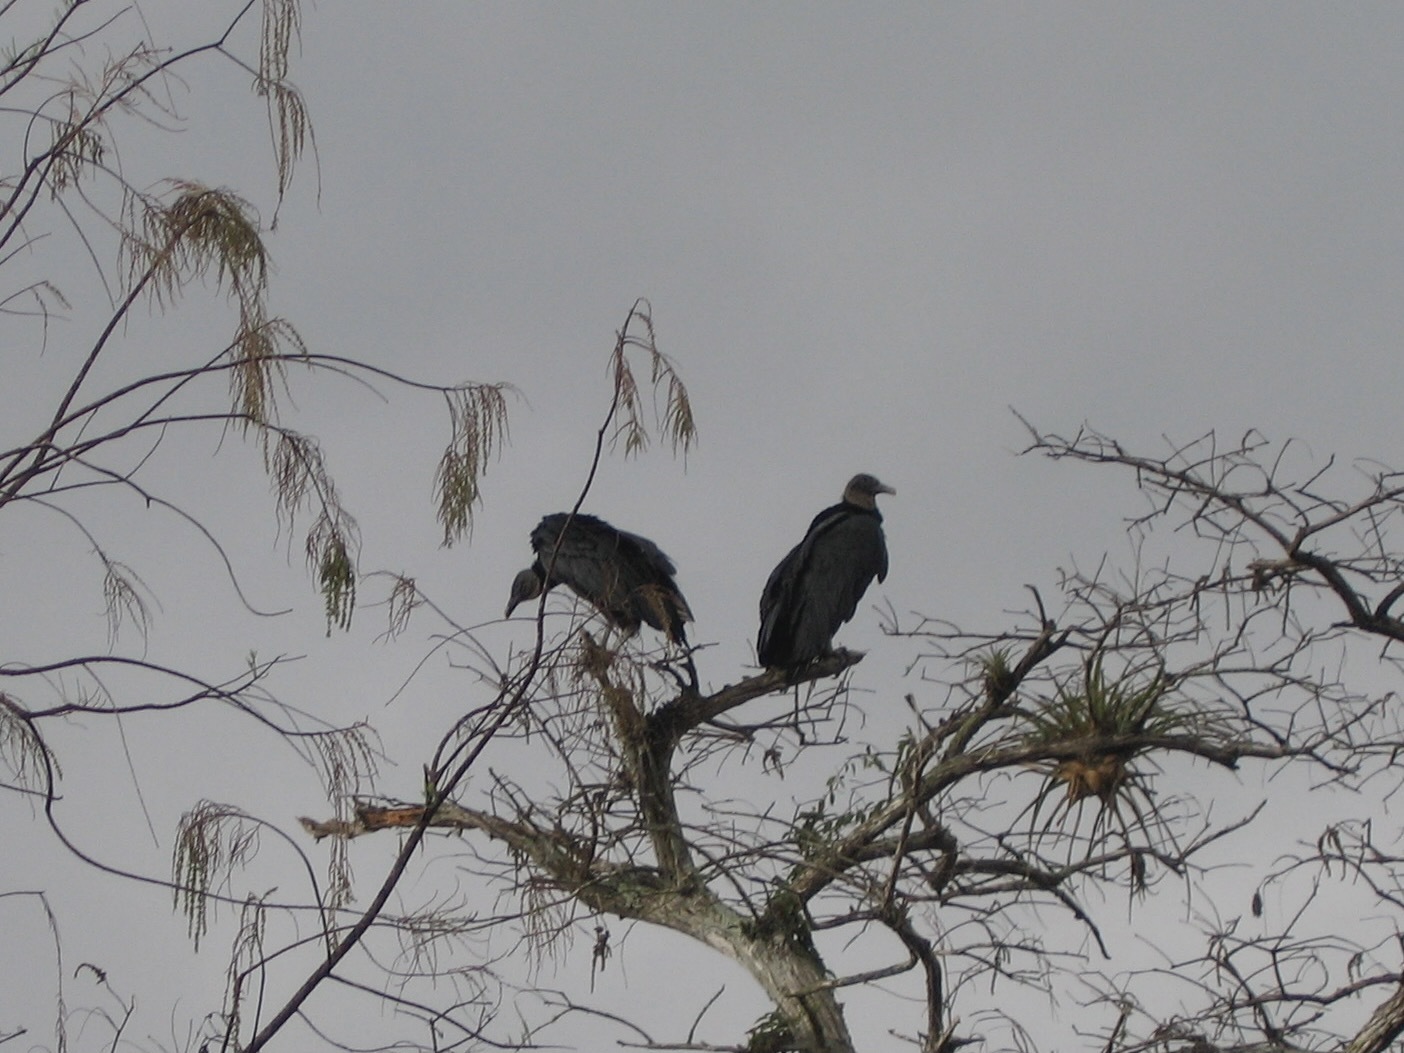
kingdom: Animalia
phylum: Chordata
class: Aves
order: Accipitriformes
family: Cathartidae
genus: Coragyps
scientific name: Coragyps atratus
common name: Black vulture
